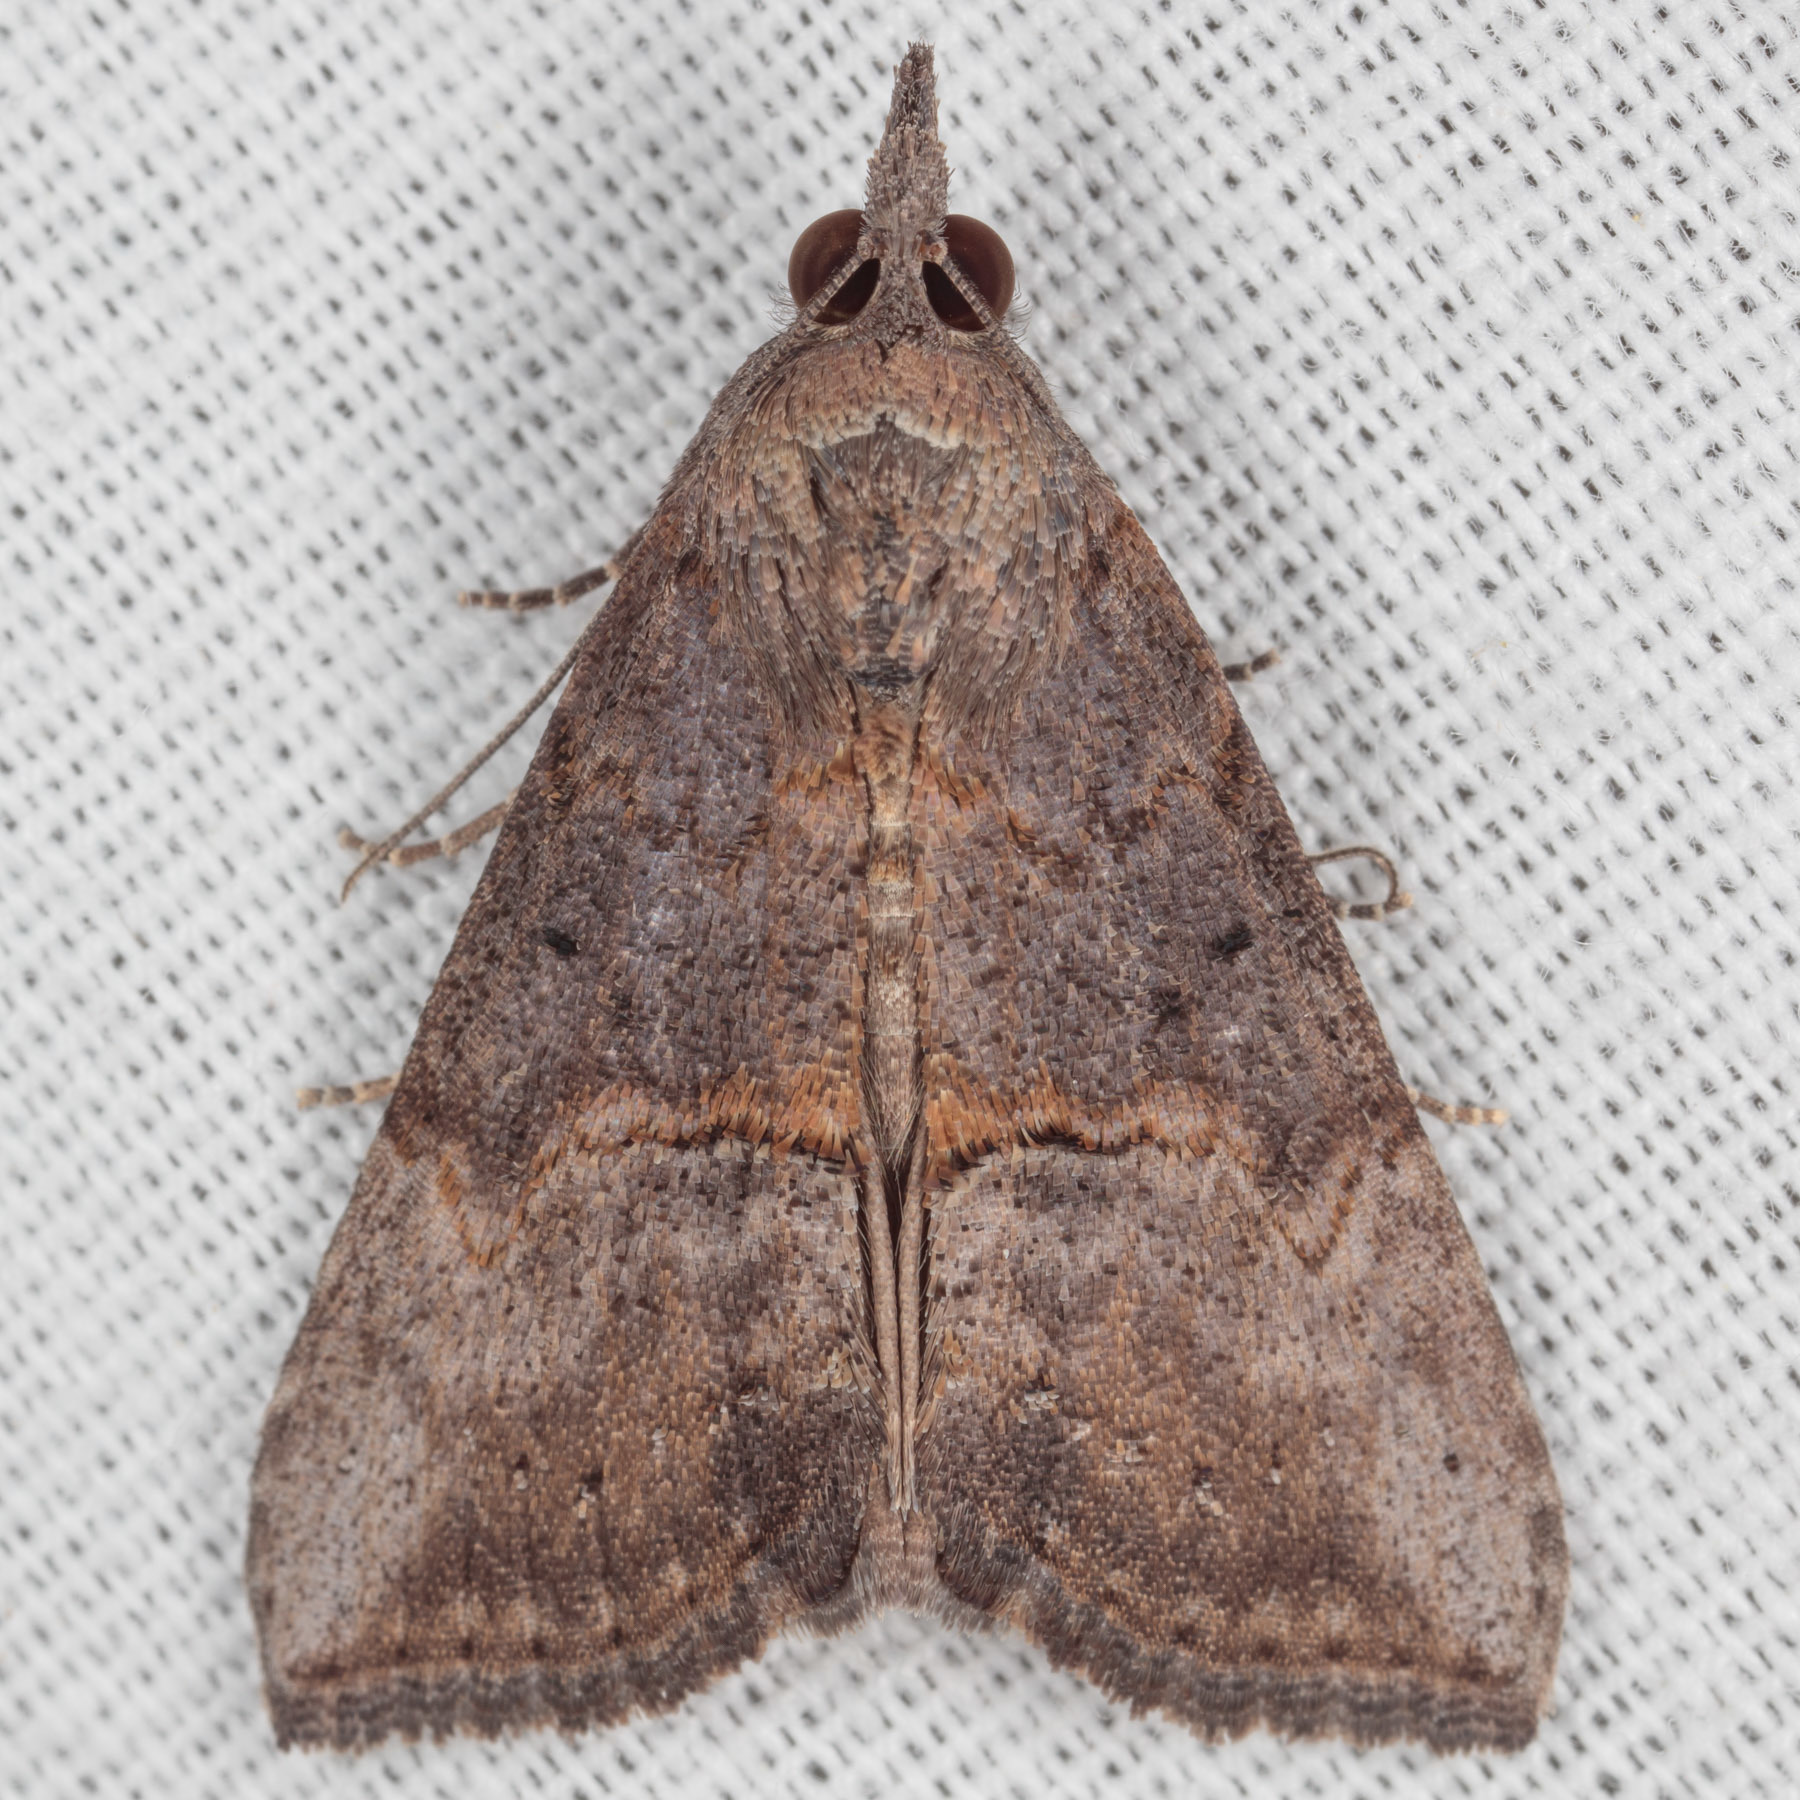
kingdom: Animalia
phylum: Arthropoda
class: Insecta
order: Lepidoptera
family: Erebidae
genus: Hypena
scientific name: Hypena scabra
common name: Green cloverworm
